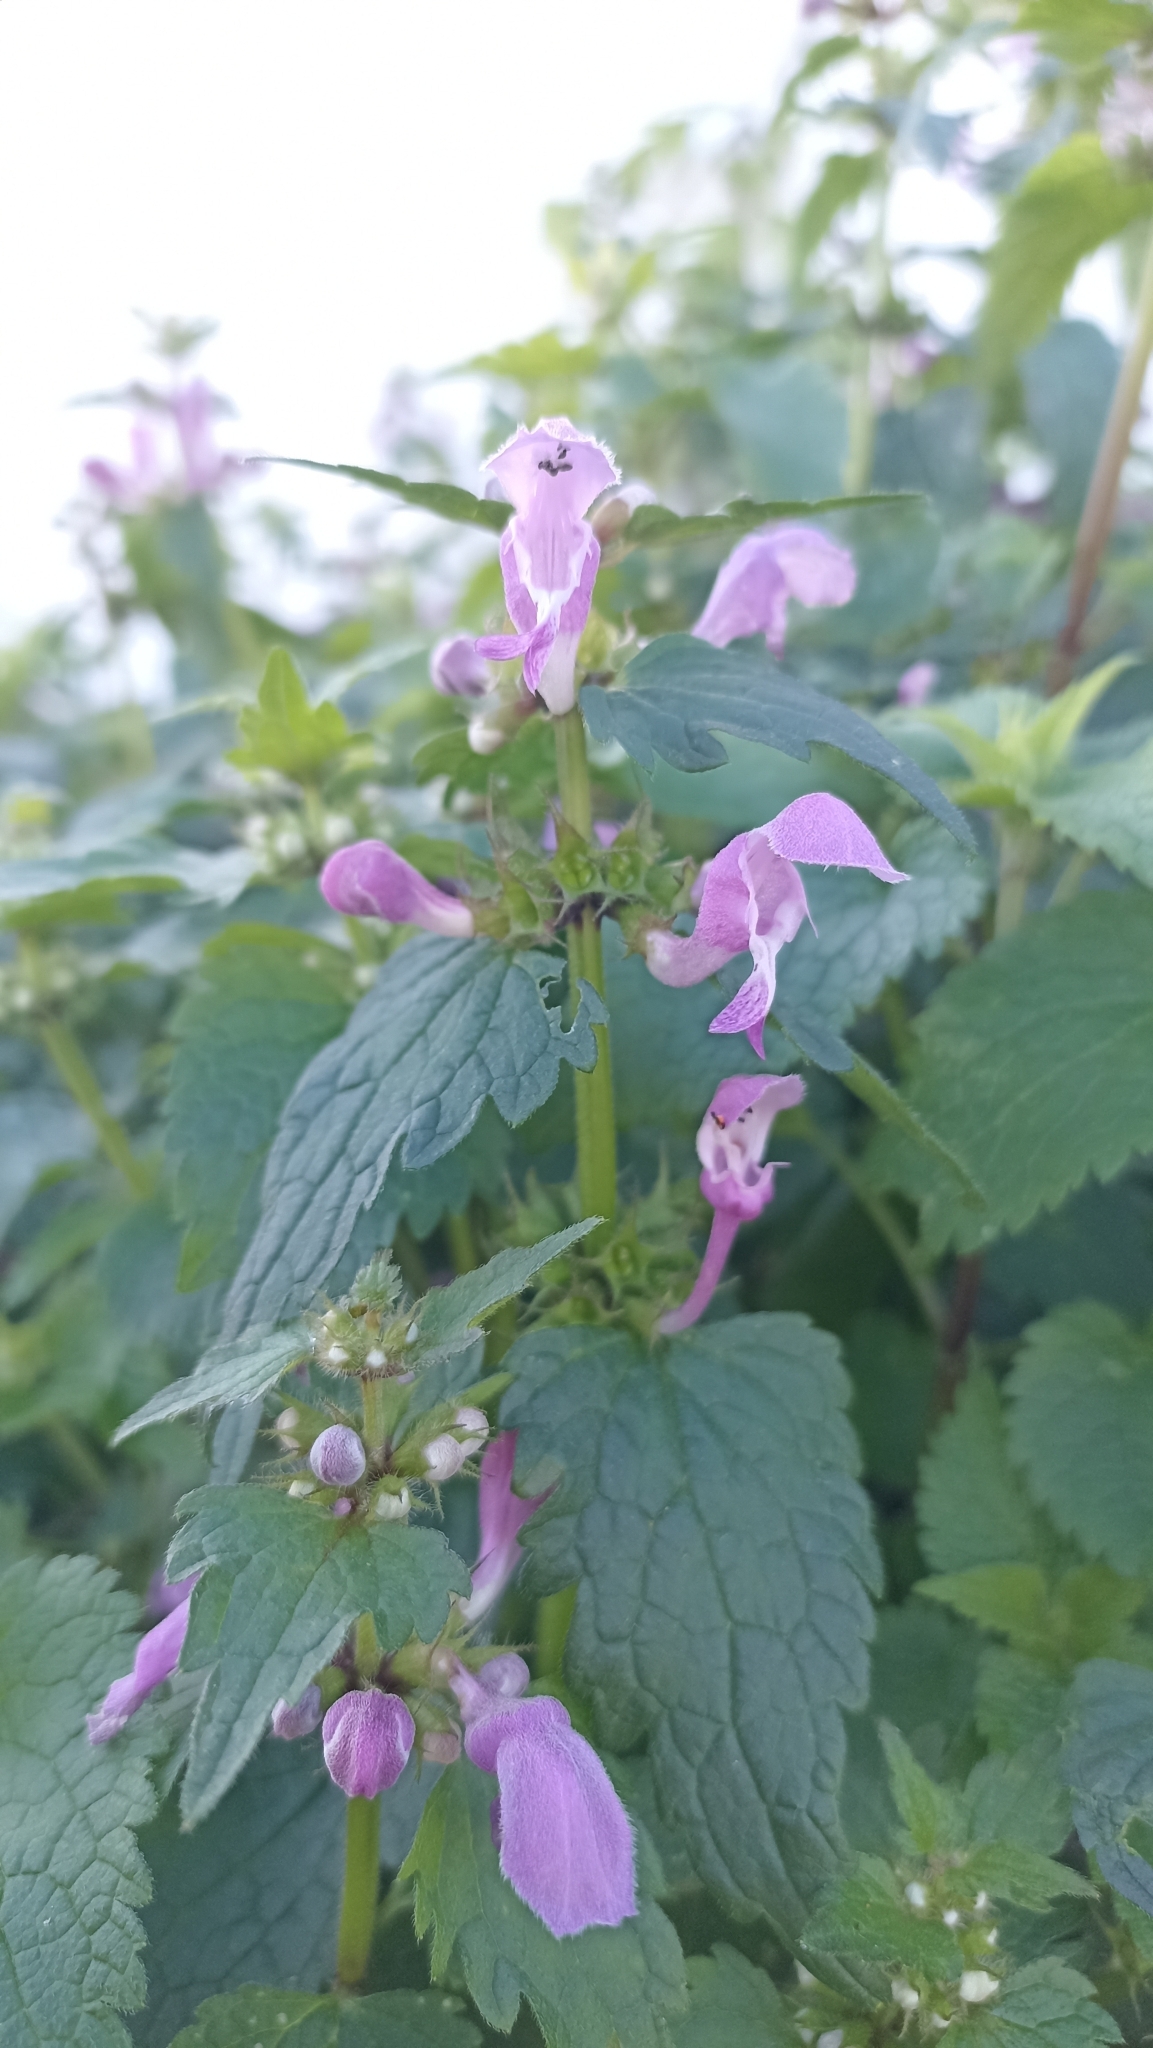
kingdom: Plantae
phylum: Tracheophyta
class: Magnoliopsida
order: Lamiales
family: Lamiaceae
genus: Lamium
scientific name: Lamium maculatum
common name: Spotted dead-nettle
